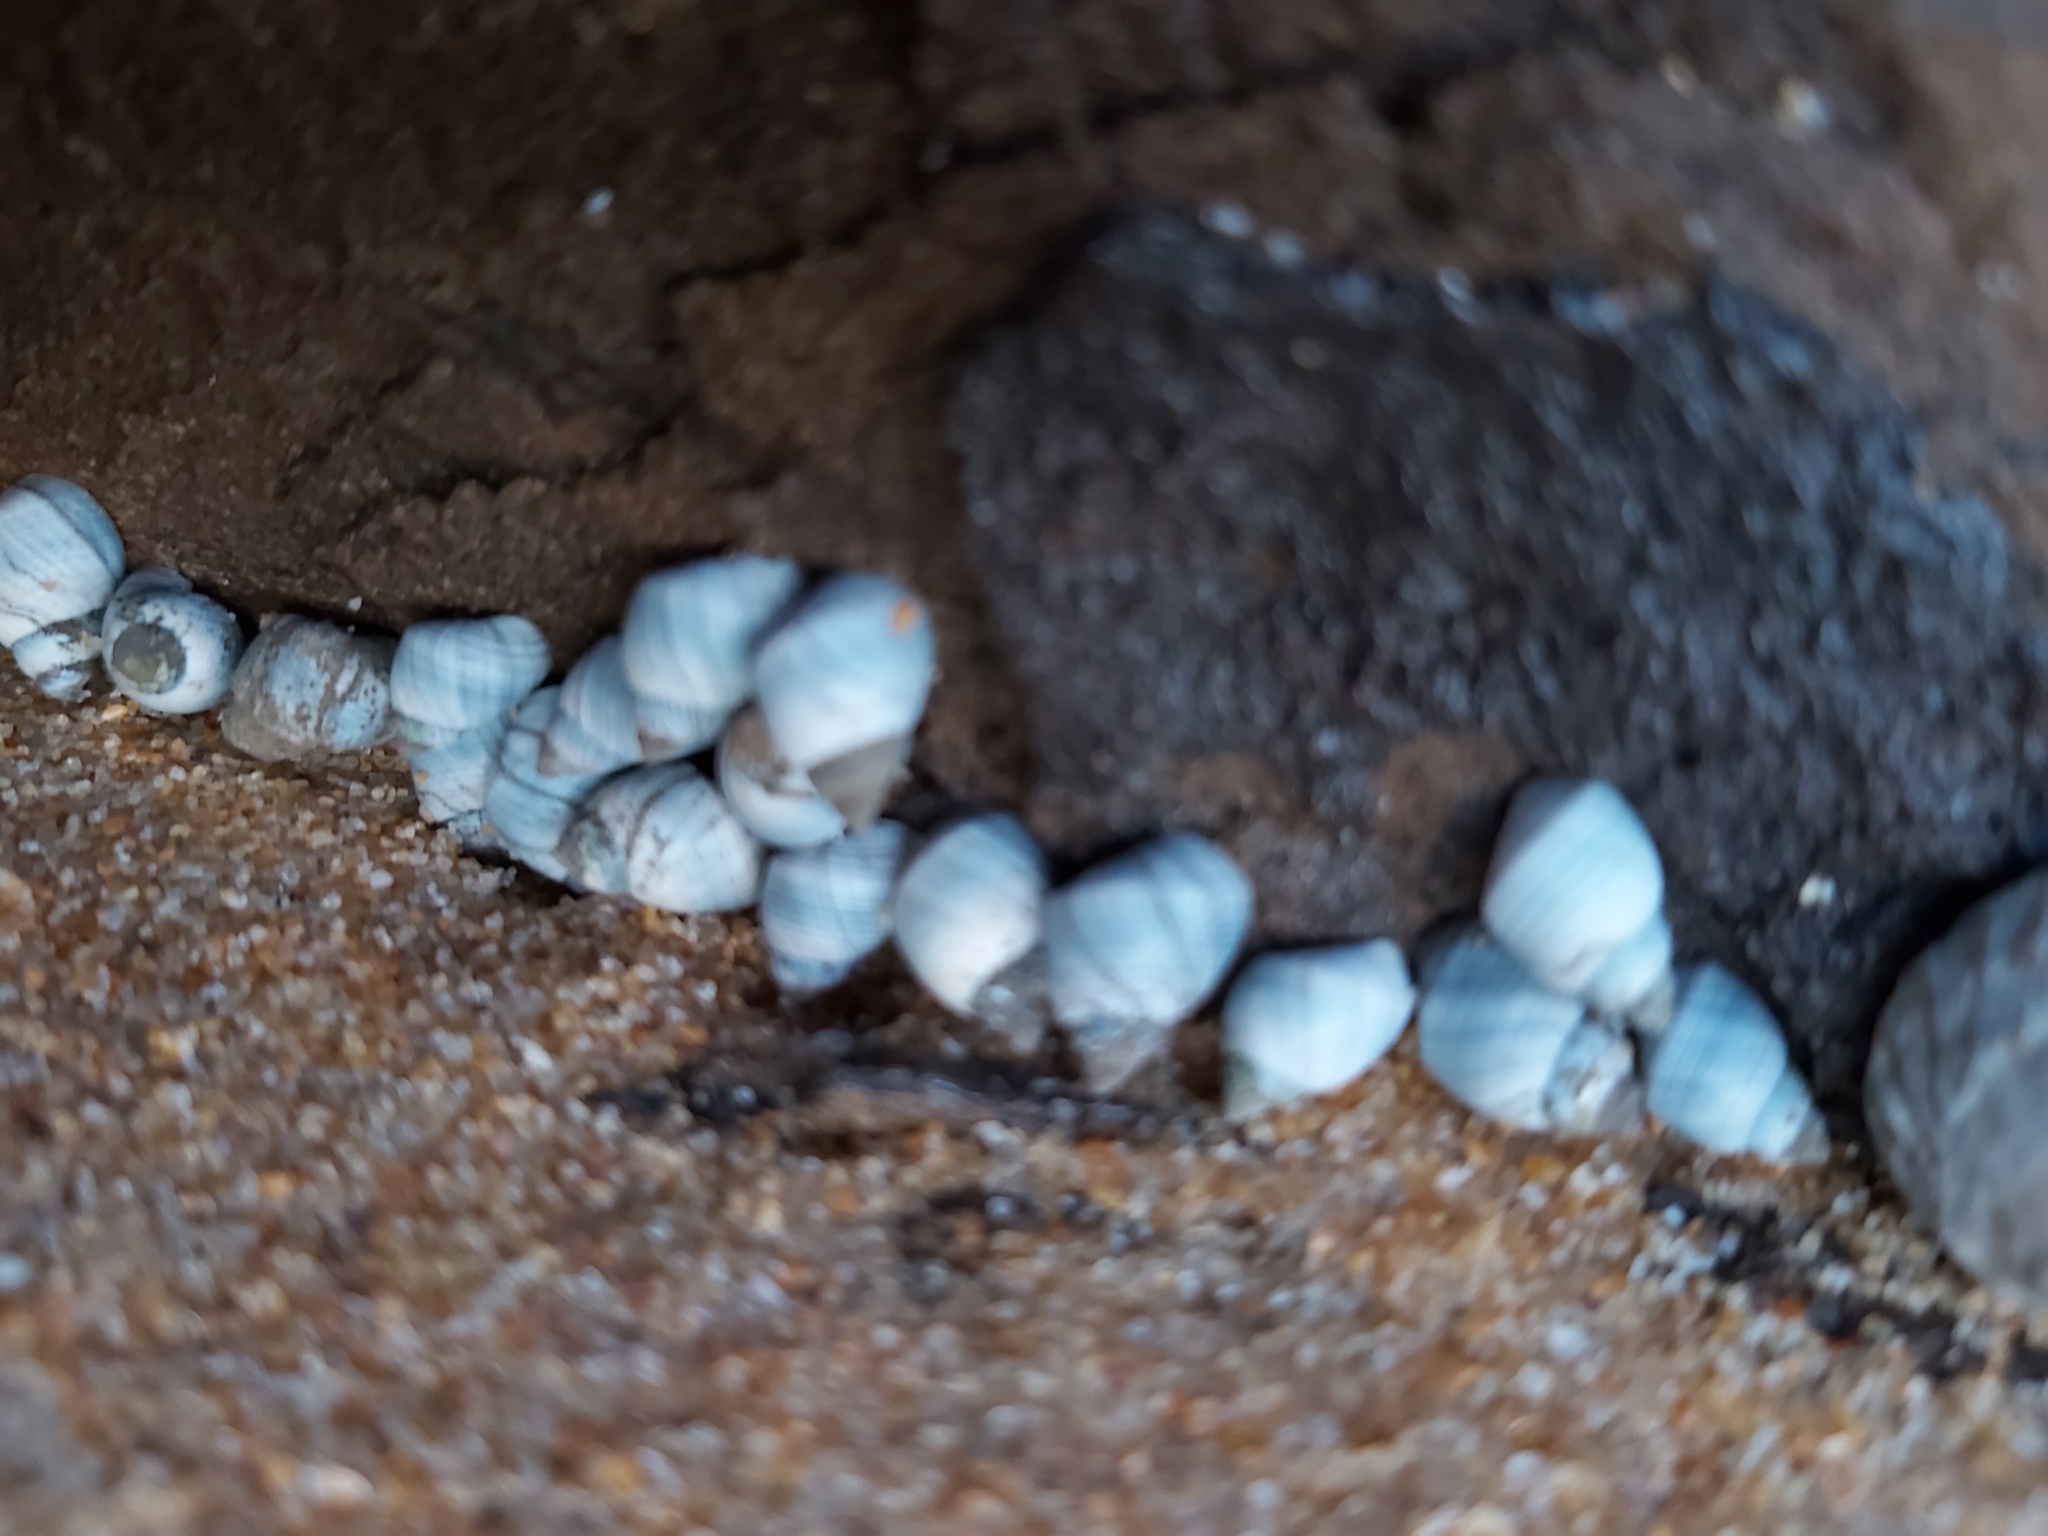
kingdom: Animalia
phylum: Mollusca
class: Gastropoda
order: Littorinimorpha
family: Littorinidae
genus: Austrolittorina
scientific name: Austrolittorina unifasciata
